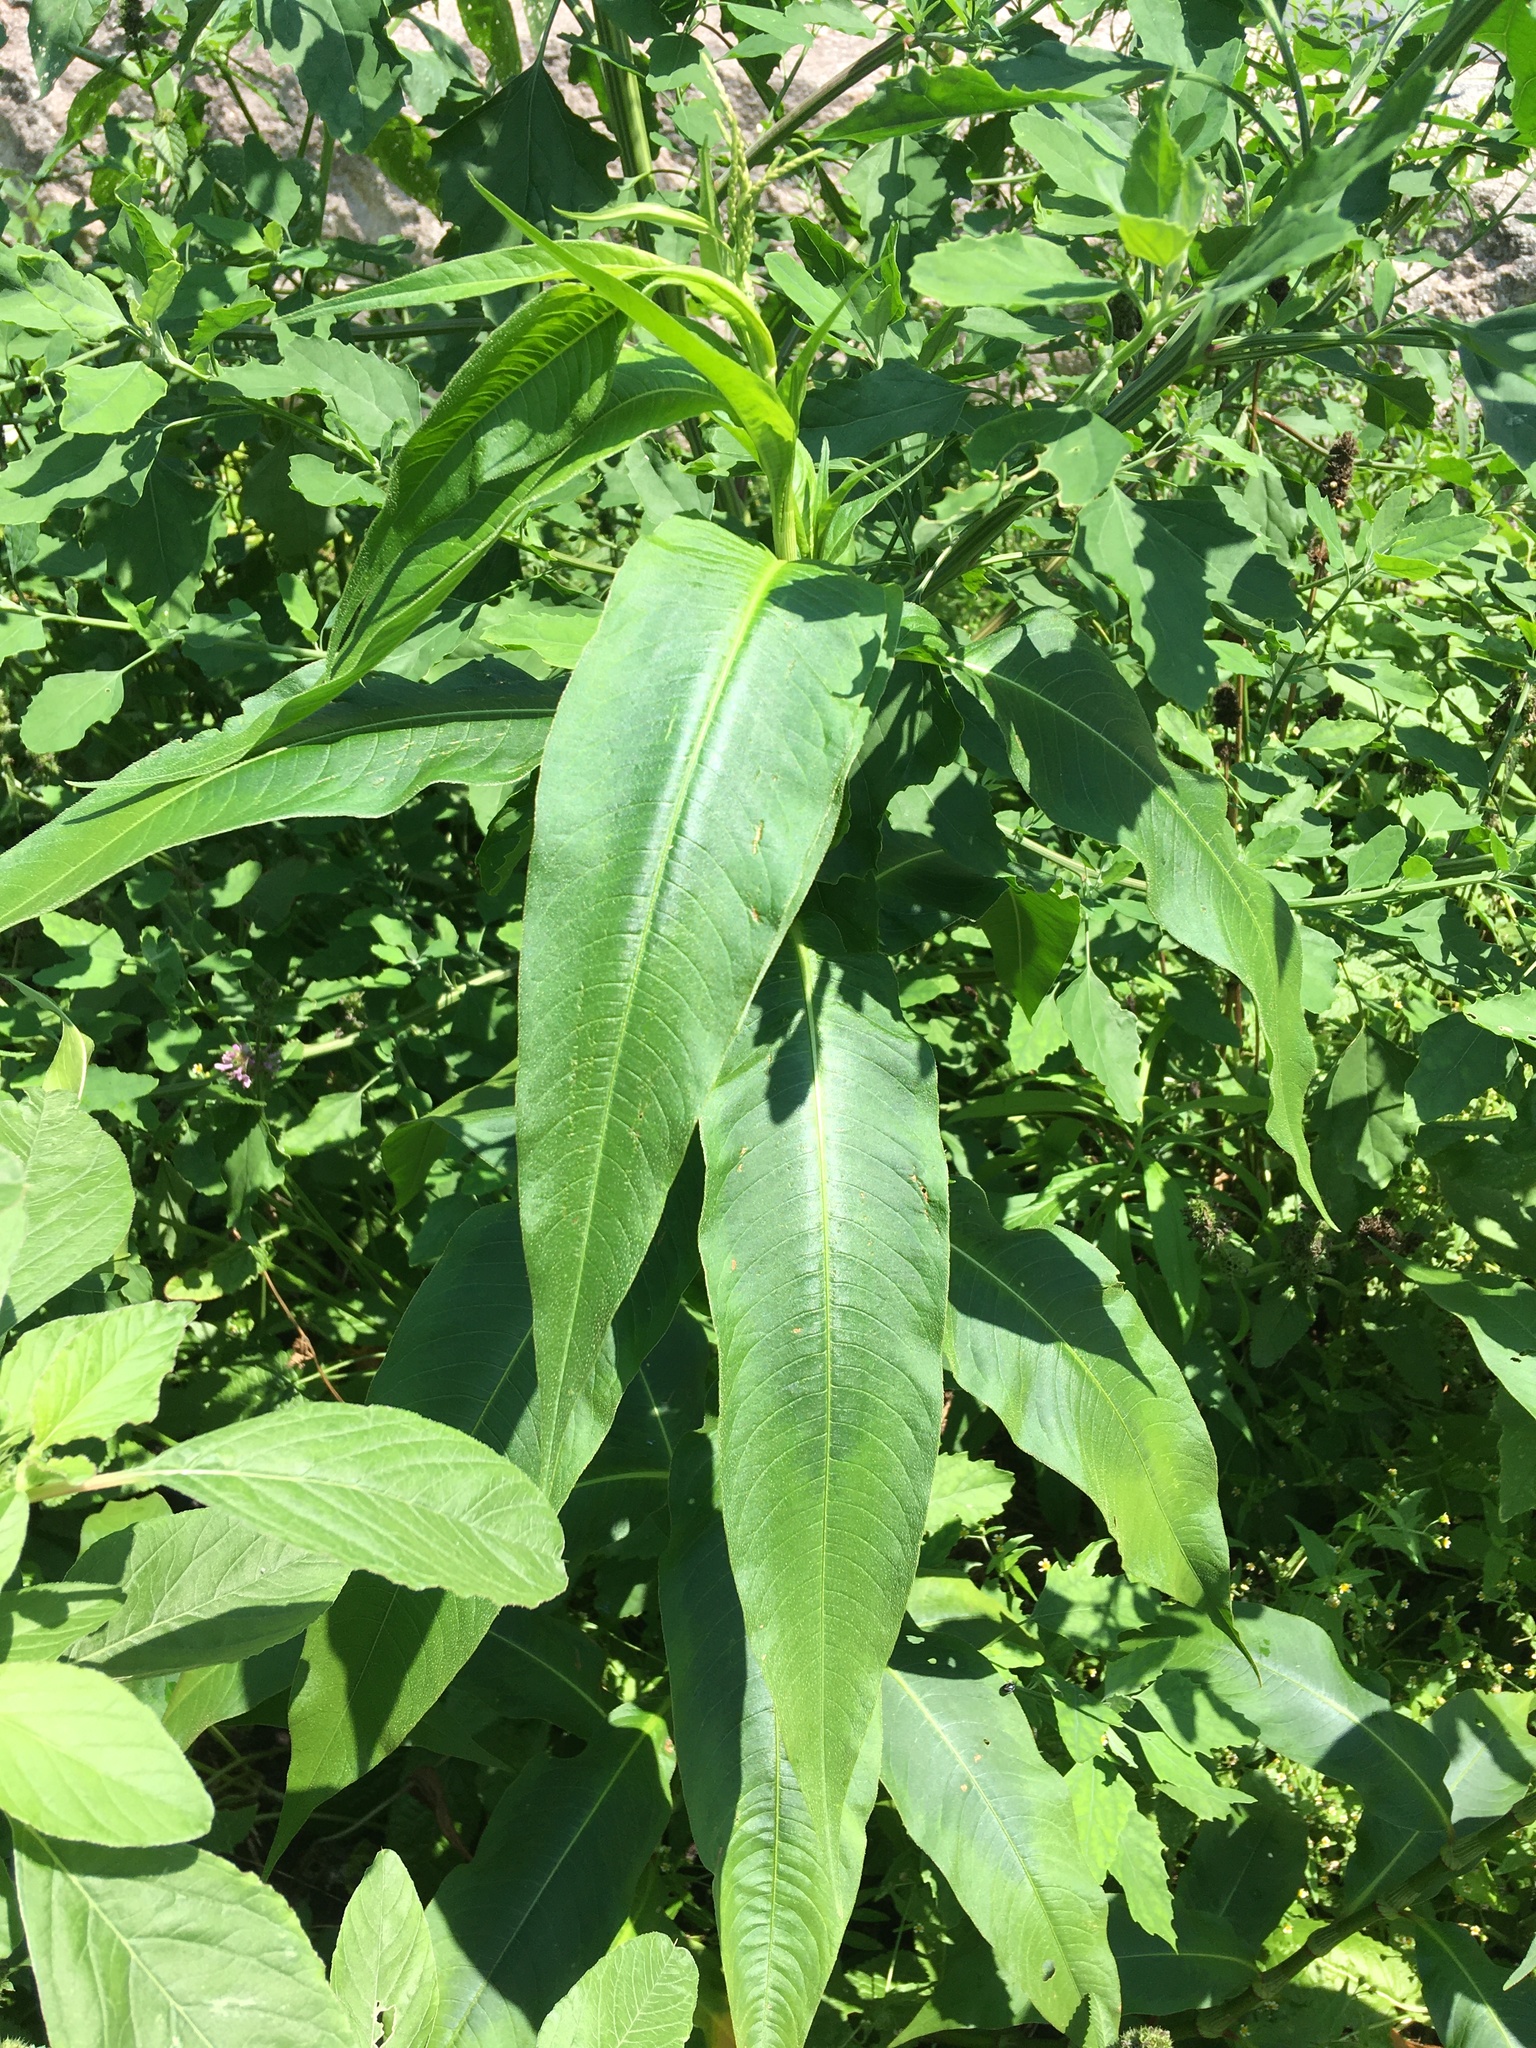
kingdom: Plantae
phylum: Tracheophyta
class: Magnoliopsida
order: Caryophyllales
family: Polygonaceae
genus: Persicaria
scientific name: Persicaria extremiorientalis
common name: Far-eastern smartweed
